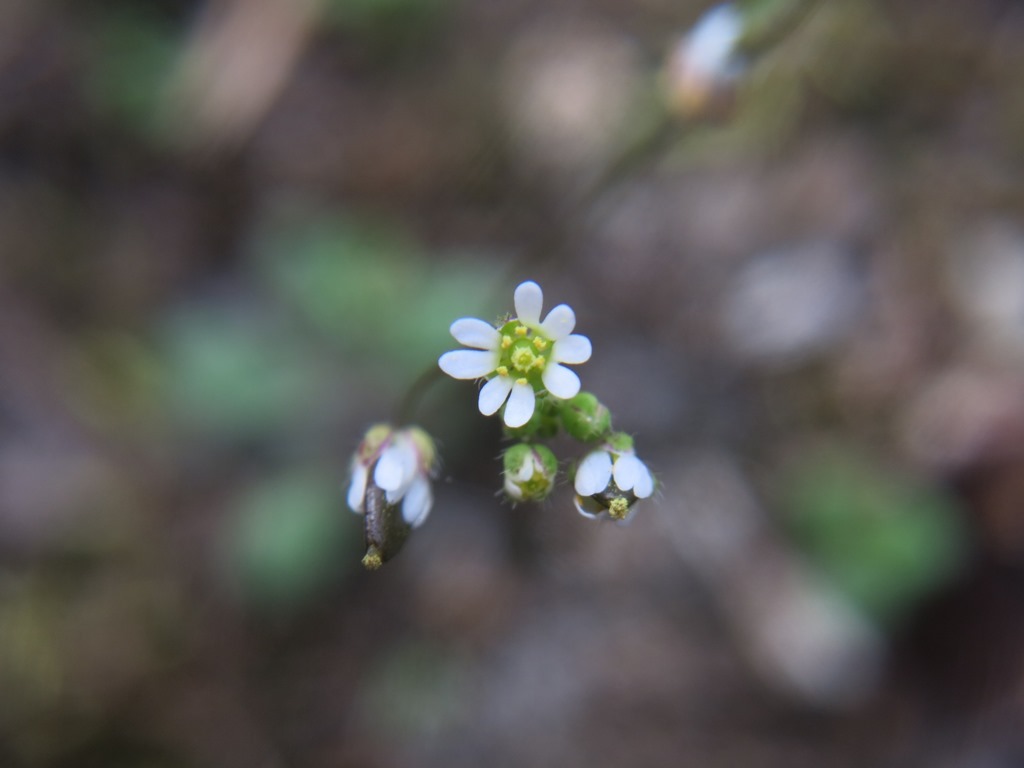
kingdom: Plantae
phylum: Tracheophyta
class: Magnoliopsida
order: Brassicales
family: Brassicaceae
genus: Draba
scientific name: Draba verna
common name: Spring draba
